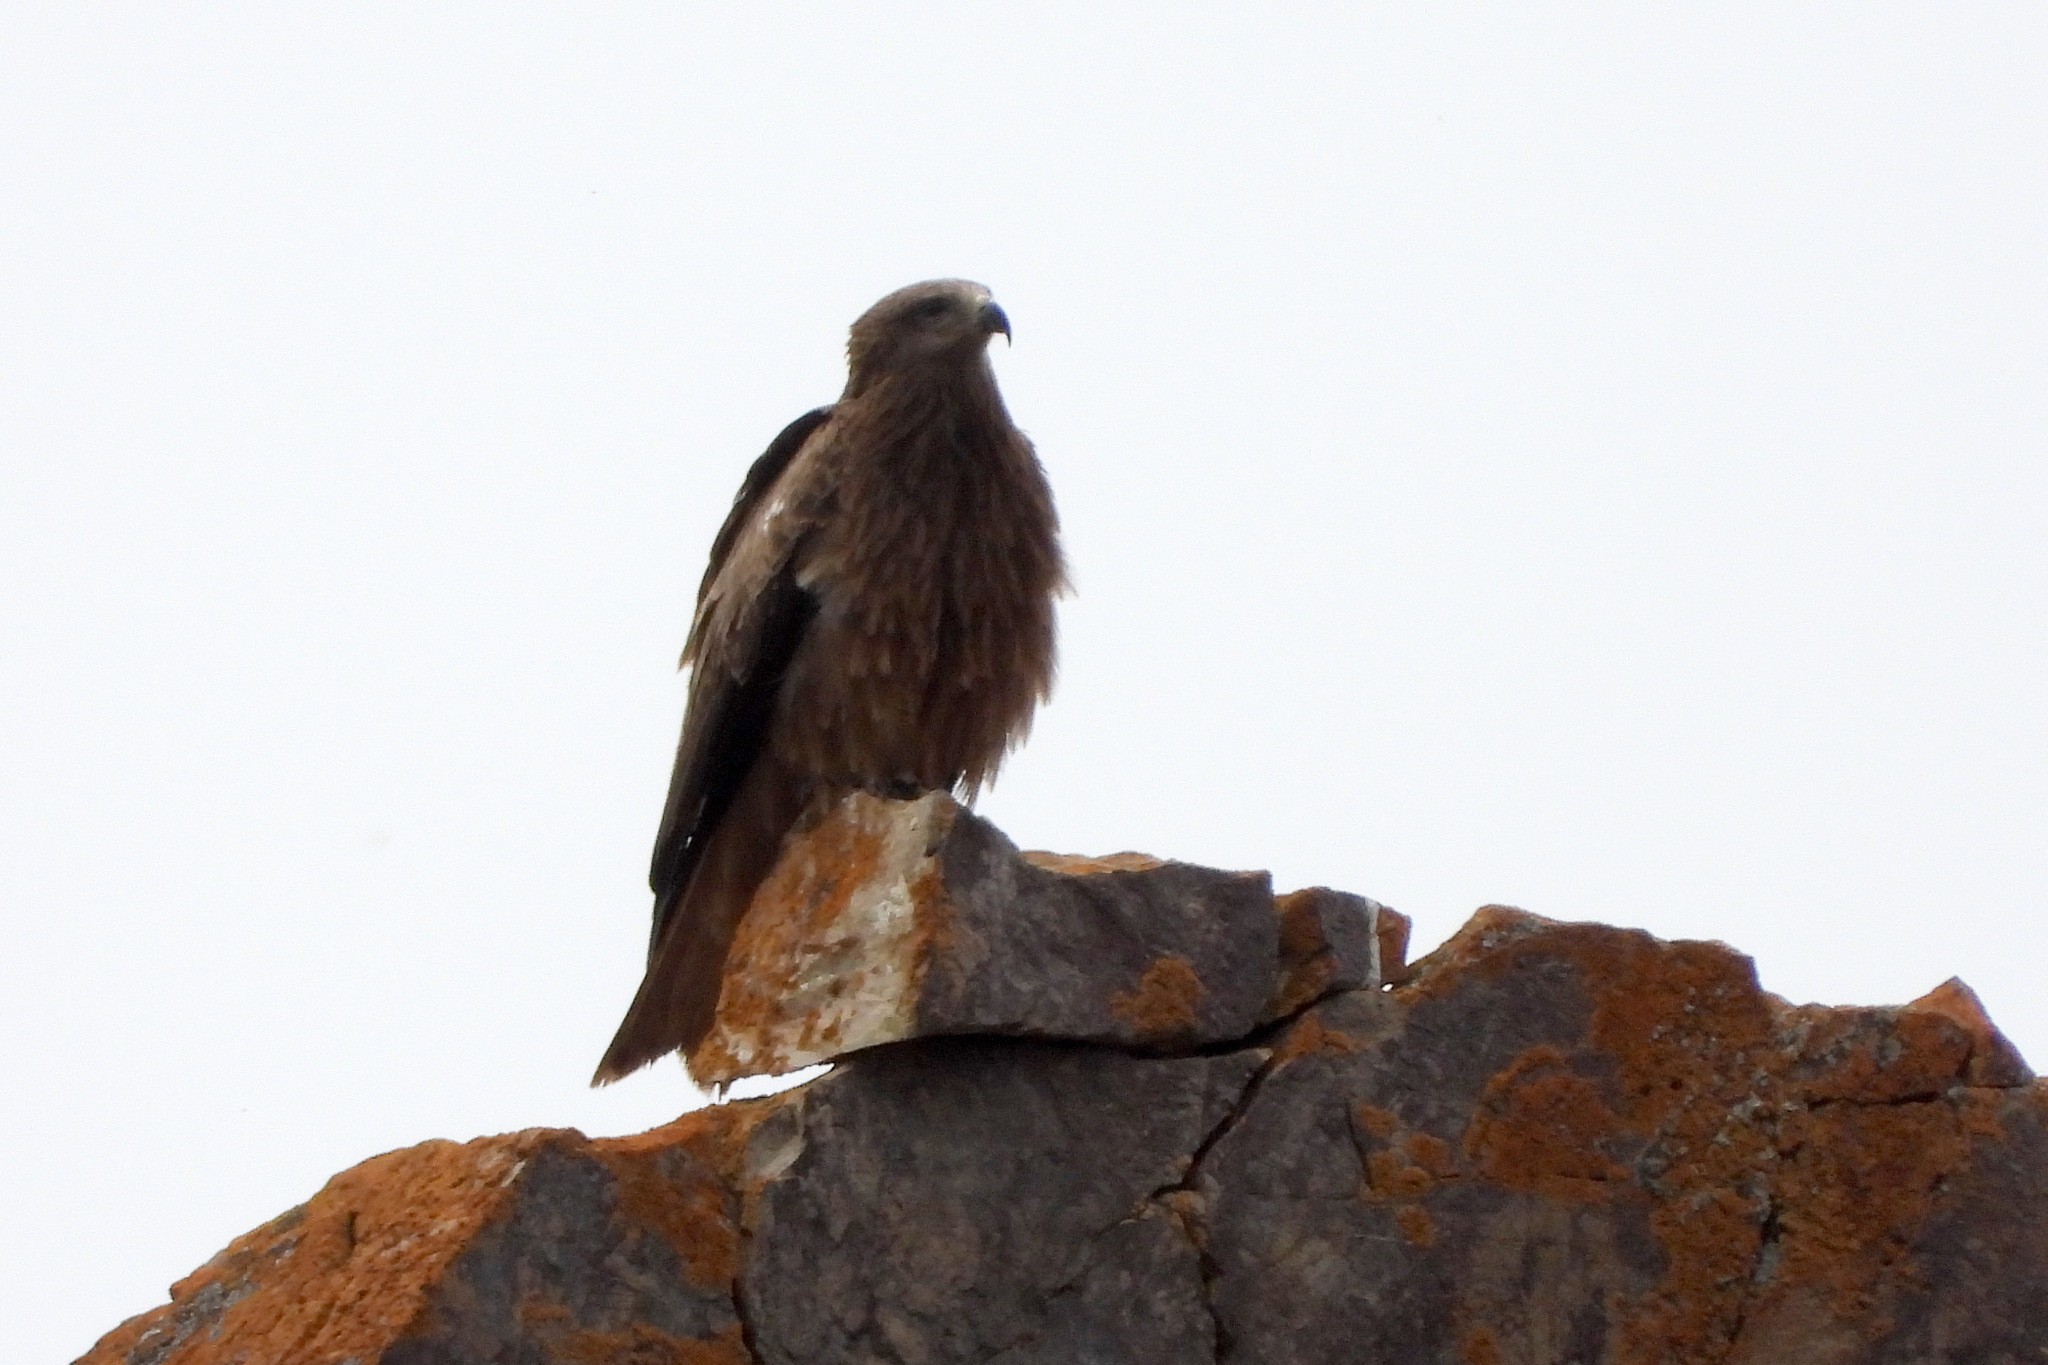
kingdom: Animalia
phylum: Chordata
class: Aves
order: Accipitriformes
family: Accipitridae
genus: Milvus
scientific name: Milvus migrans
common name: Black kite
